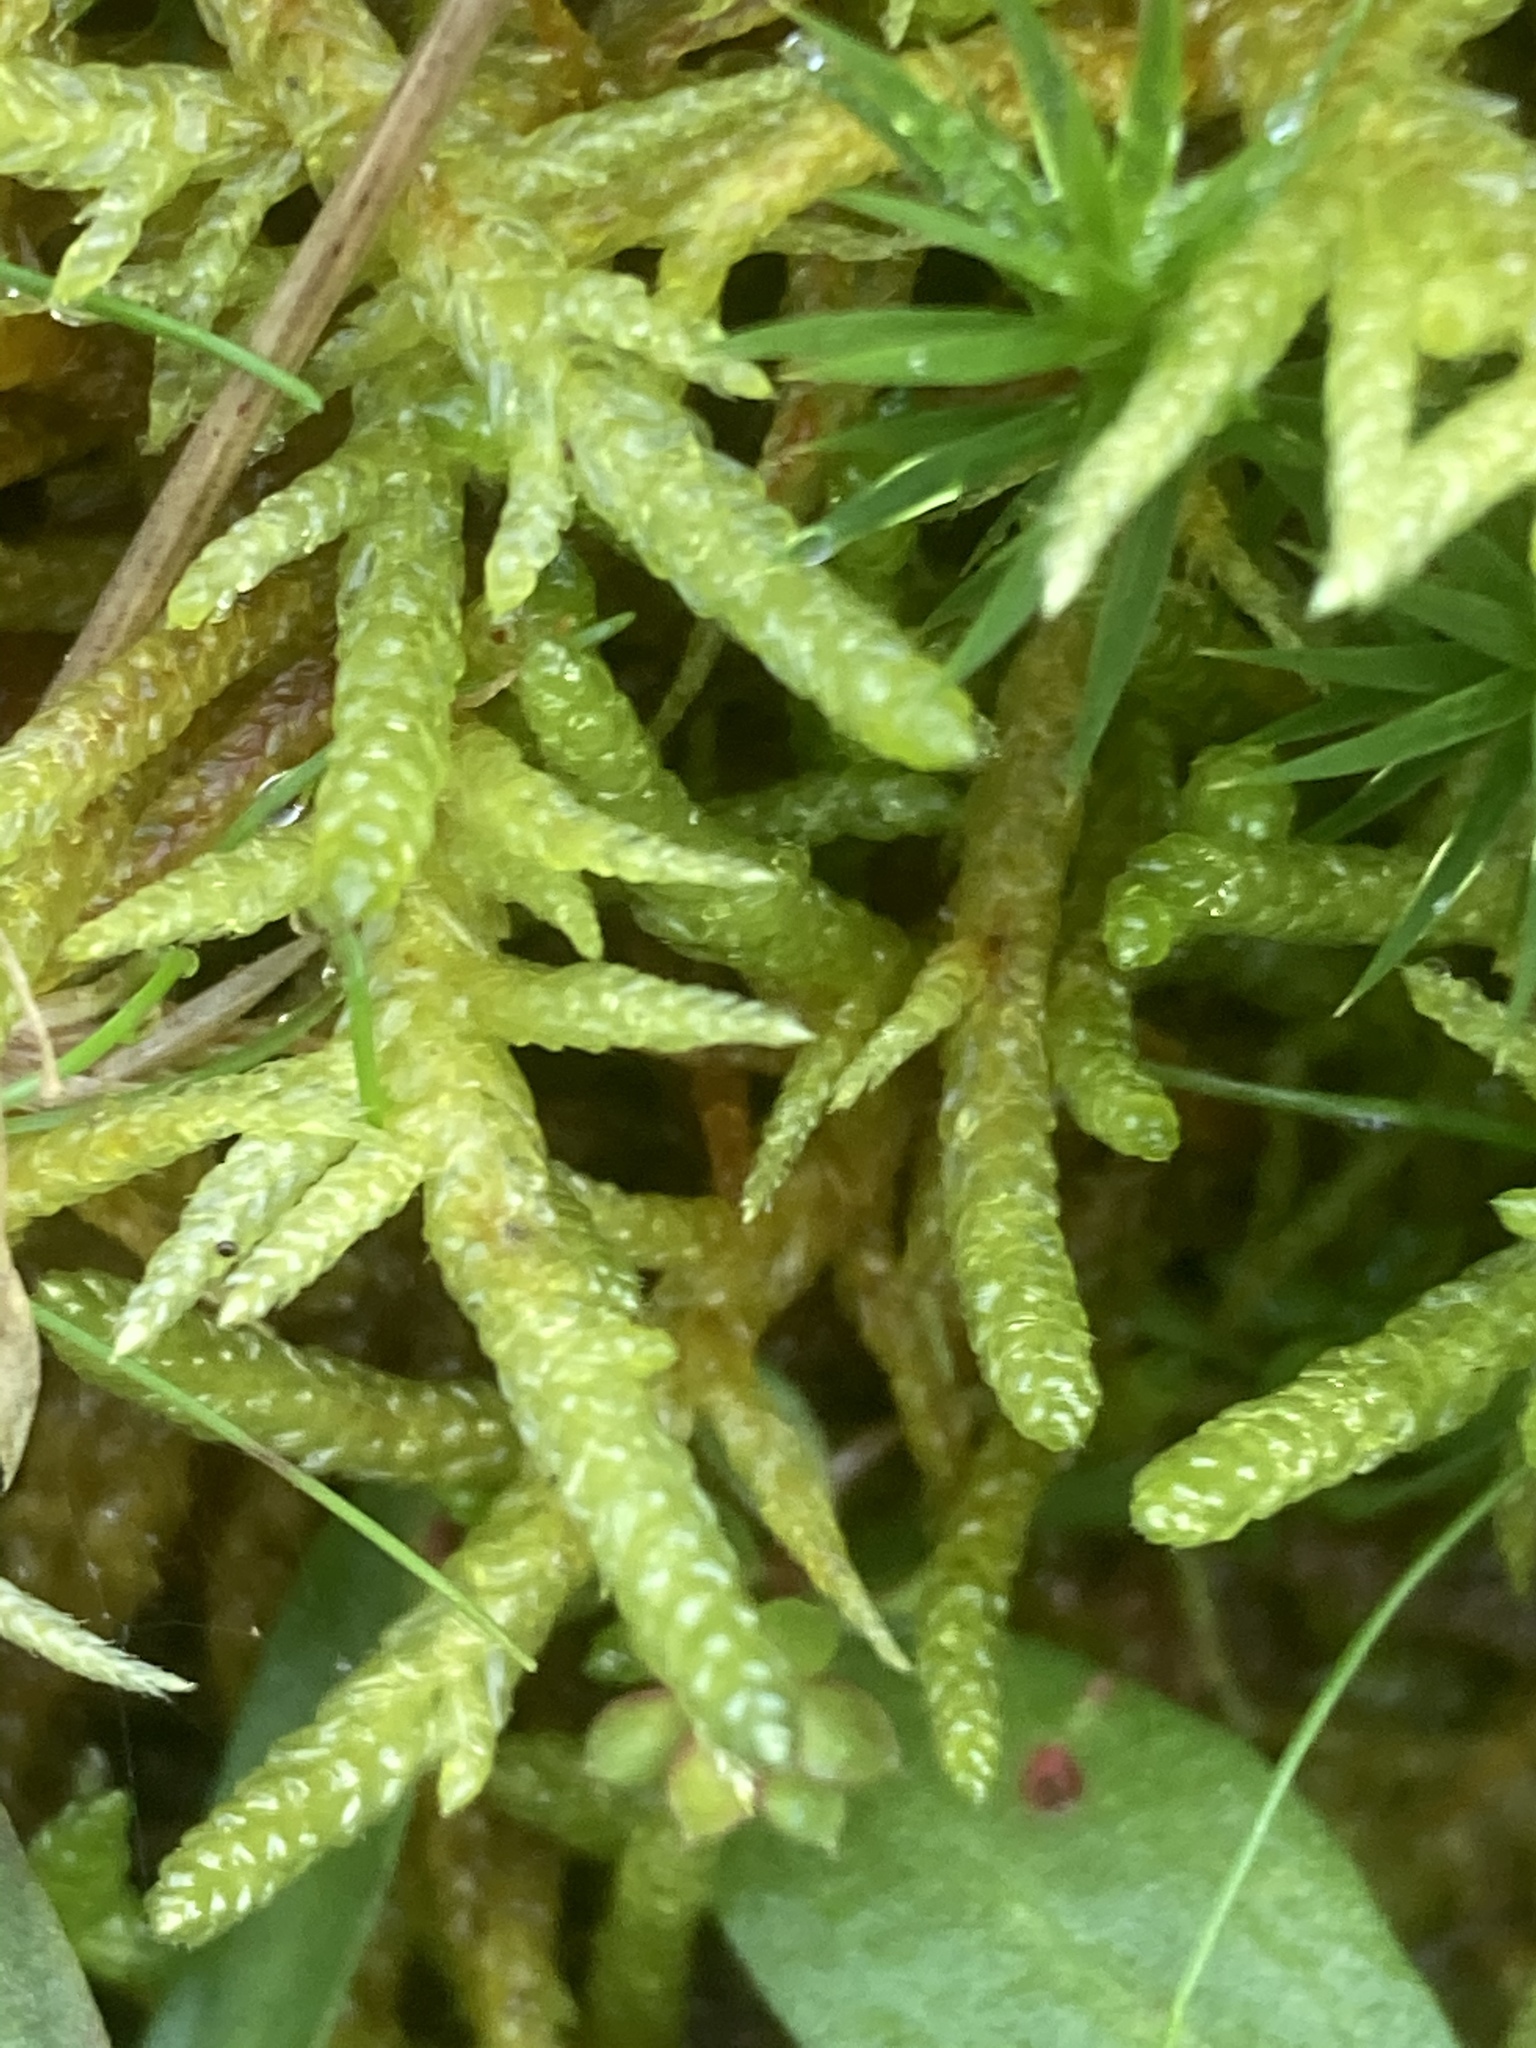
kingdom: Plantae
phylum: Bryophyta
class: Bryopsida
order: Hypnales
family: Brachytheciaceae
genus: Pseudoscleropodium
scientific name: Pseudoscleropodium purum
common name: Neat feather-moss
